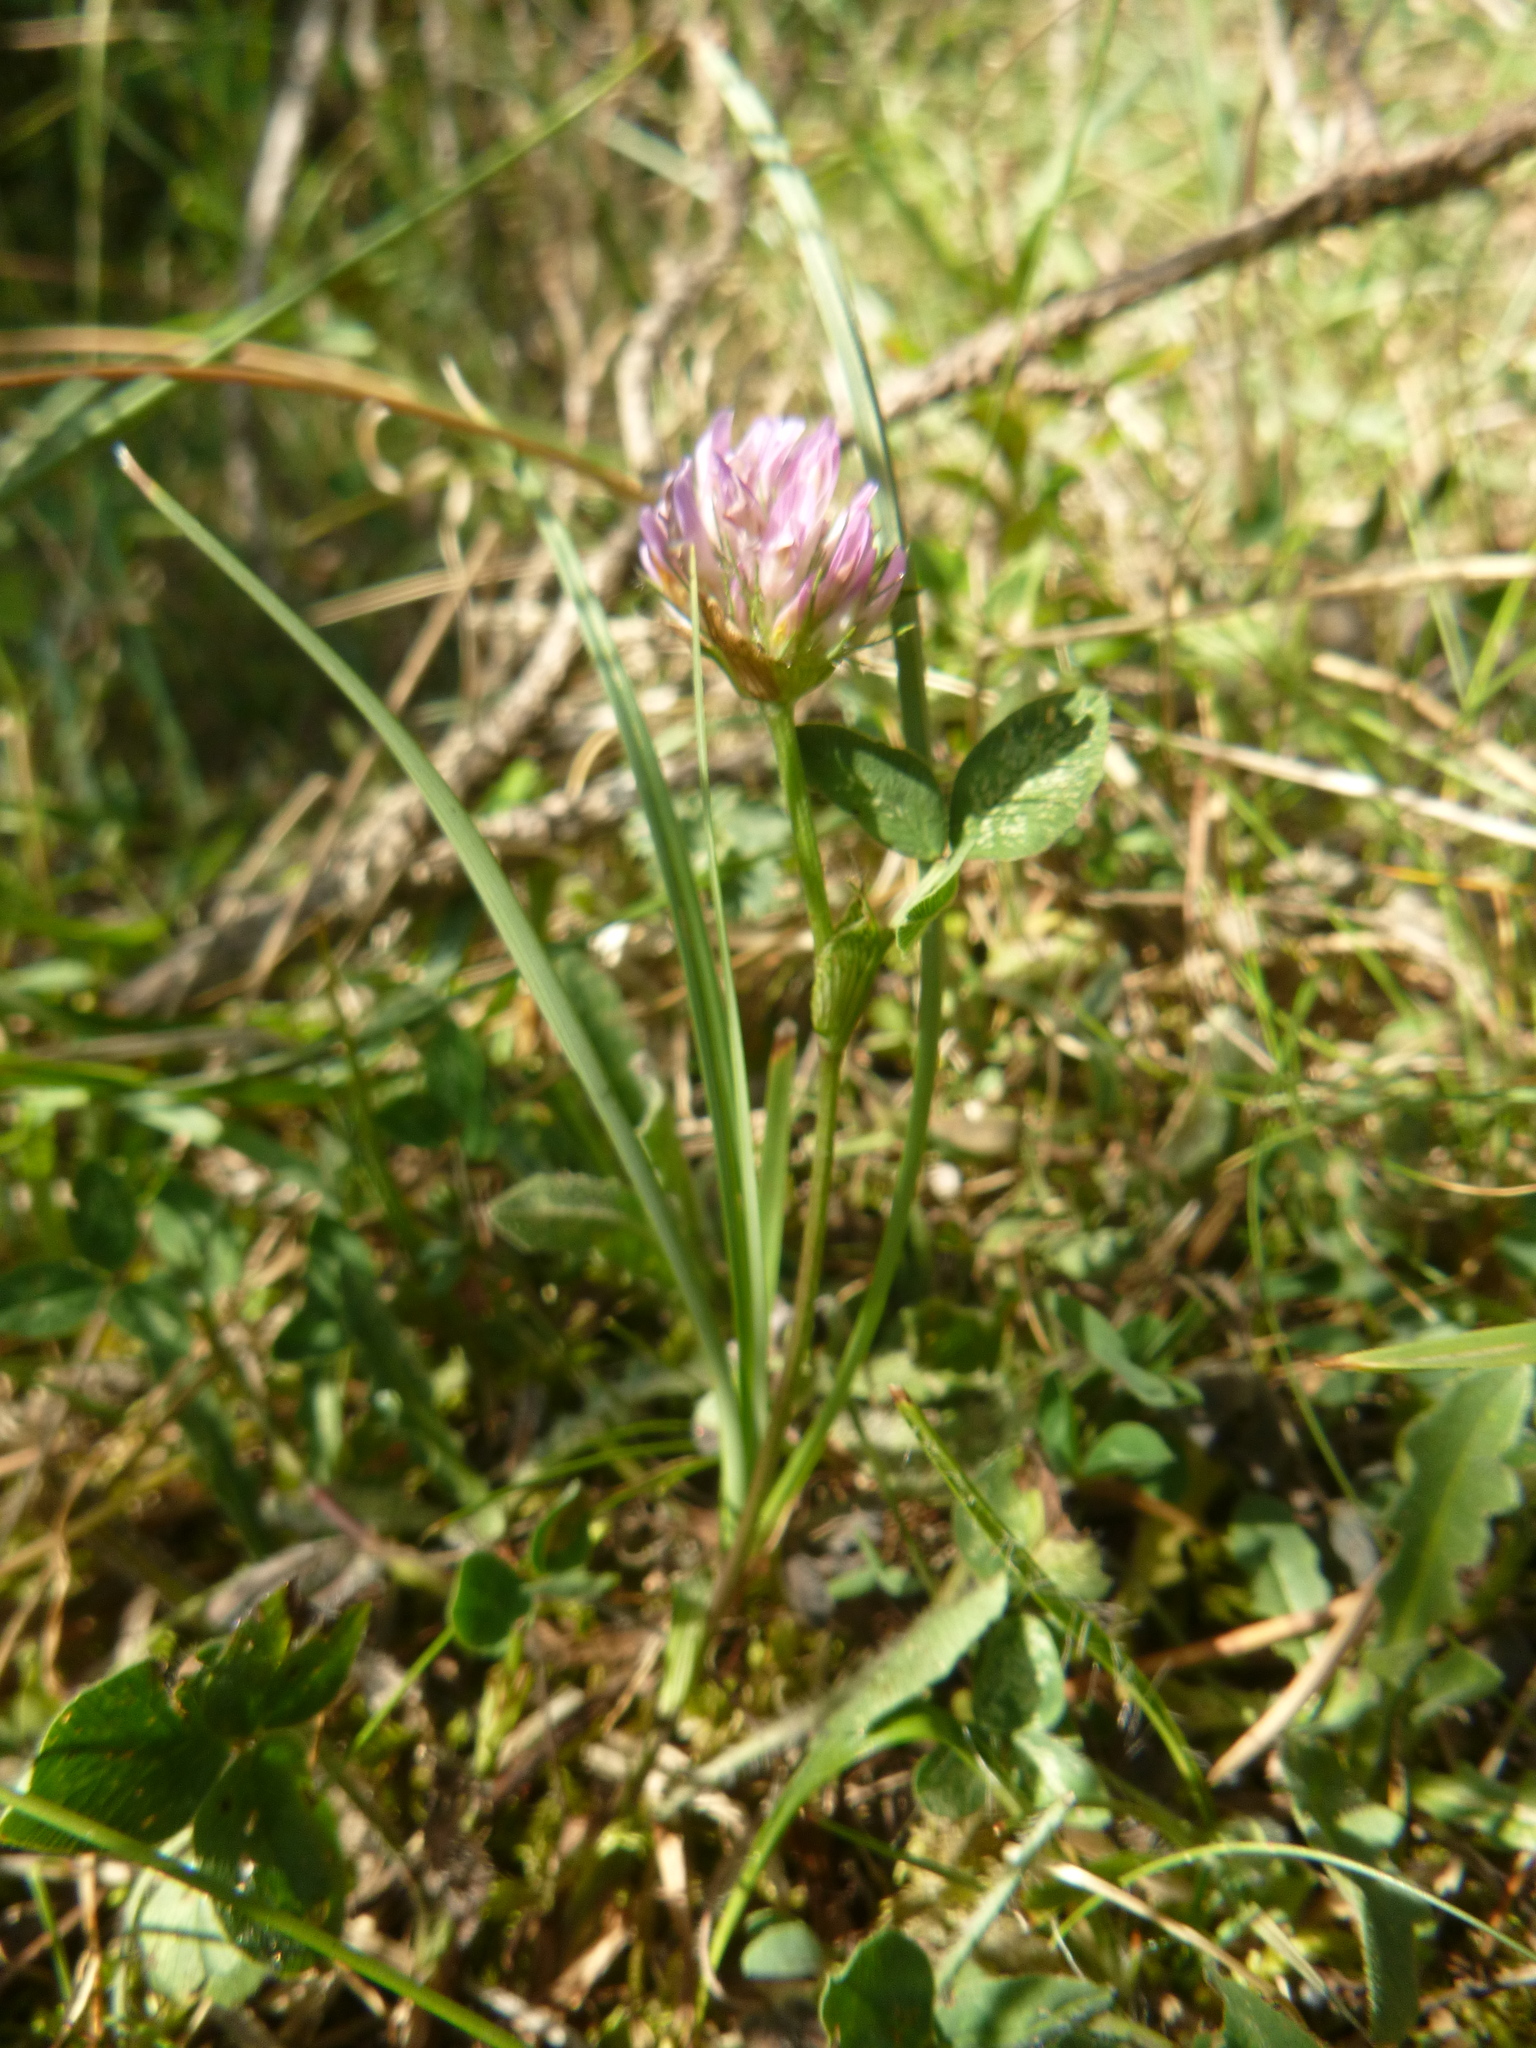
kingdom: Plantae
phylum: Tracheophyta
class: Magnoliopsida
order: Fabales
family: Fabaceae
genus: Trifolium
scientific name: Trifolium pratense
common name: Red clover
